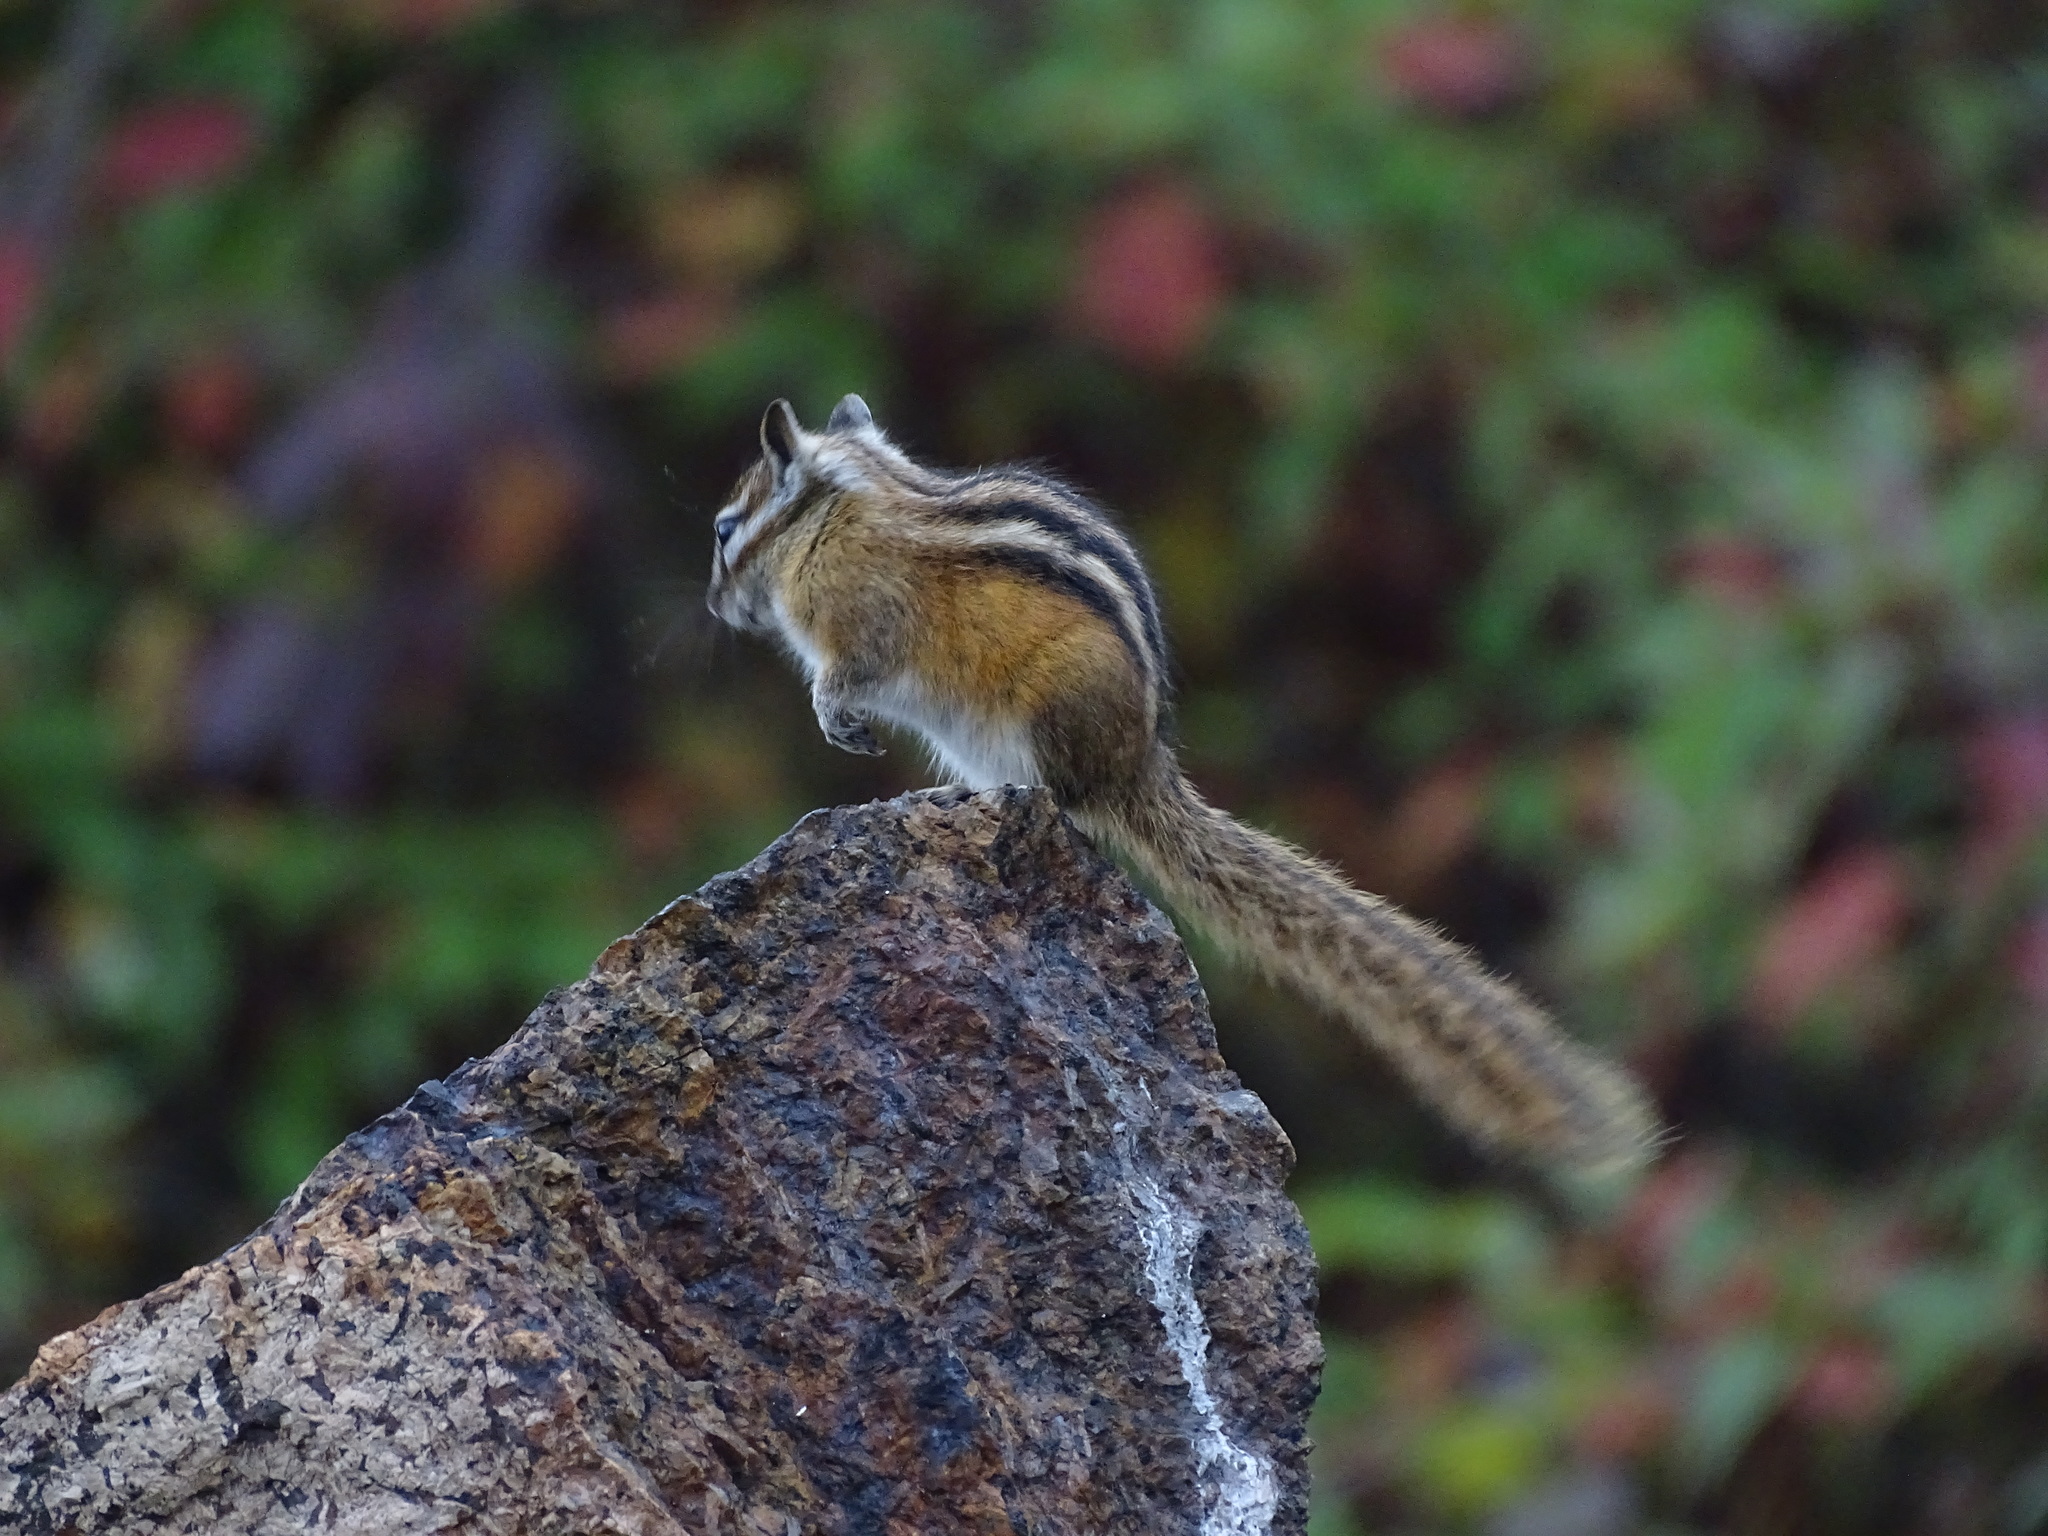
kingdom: Animalia
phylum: Chordata
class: Mammalia
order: Rodentia
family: Sciuridae
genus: Tamias
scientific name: Tamias minimus
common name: Least chipmunk
